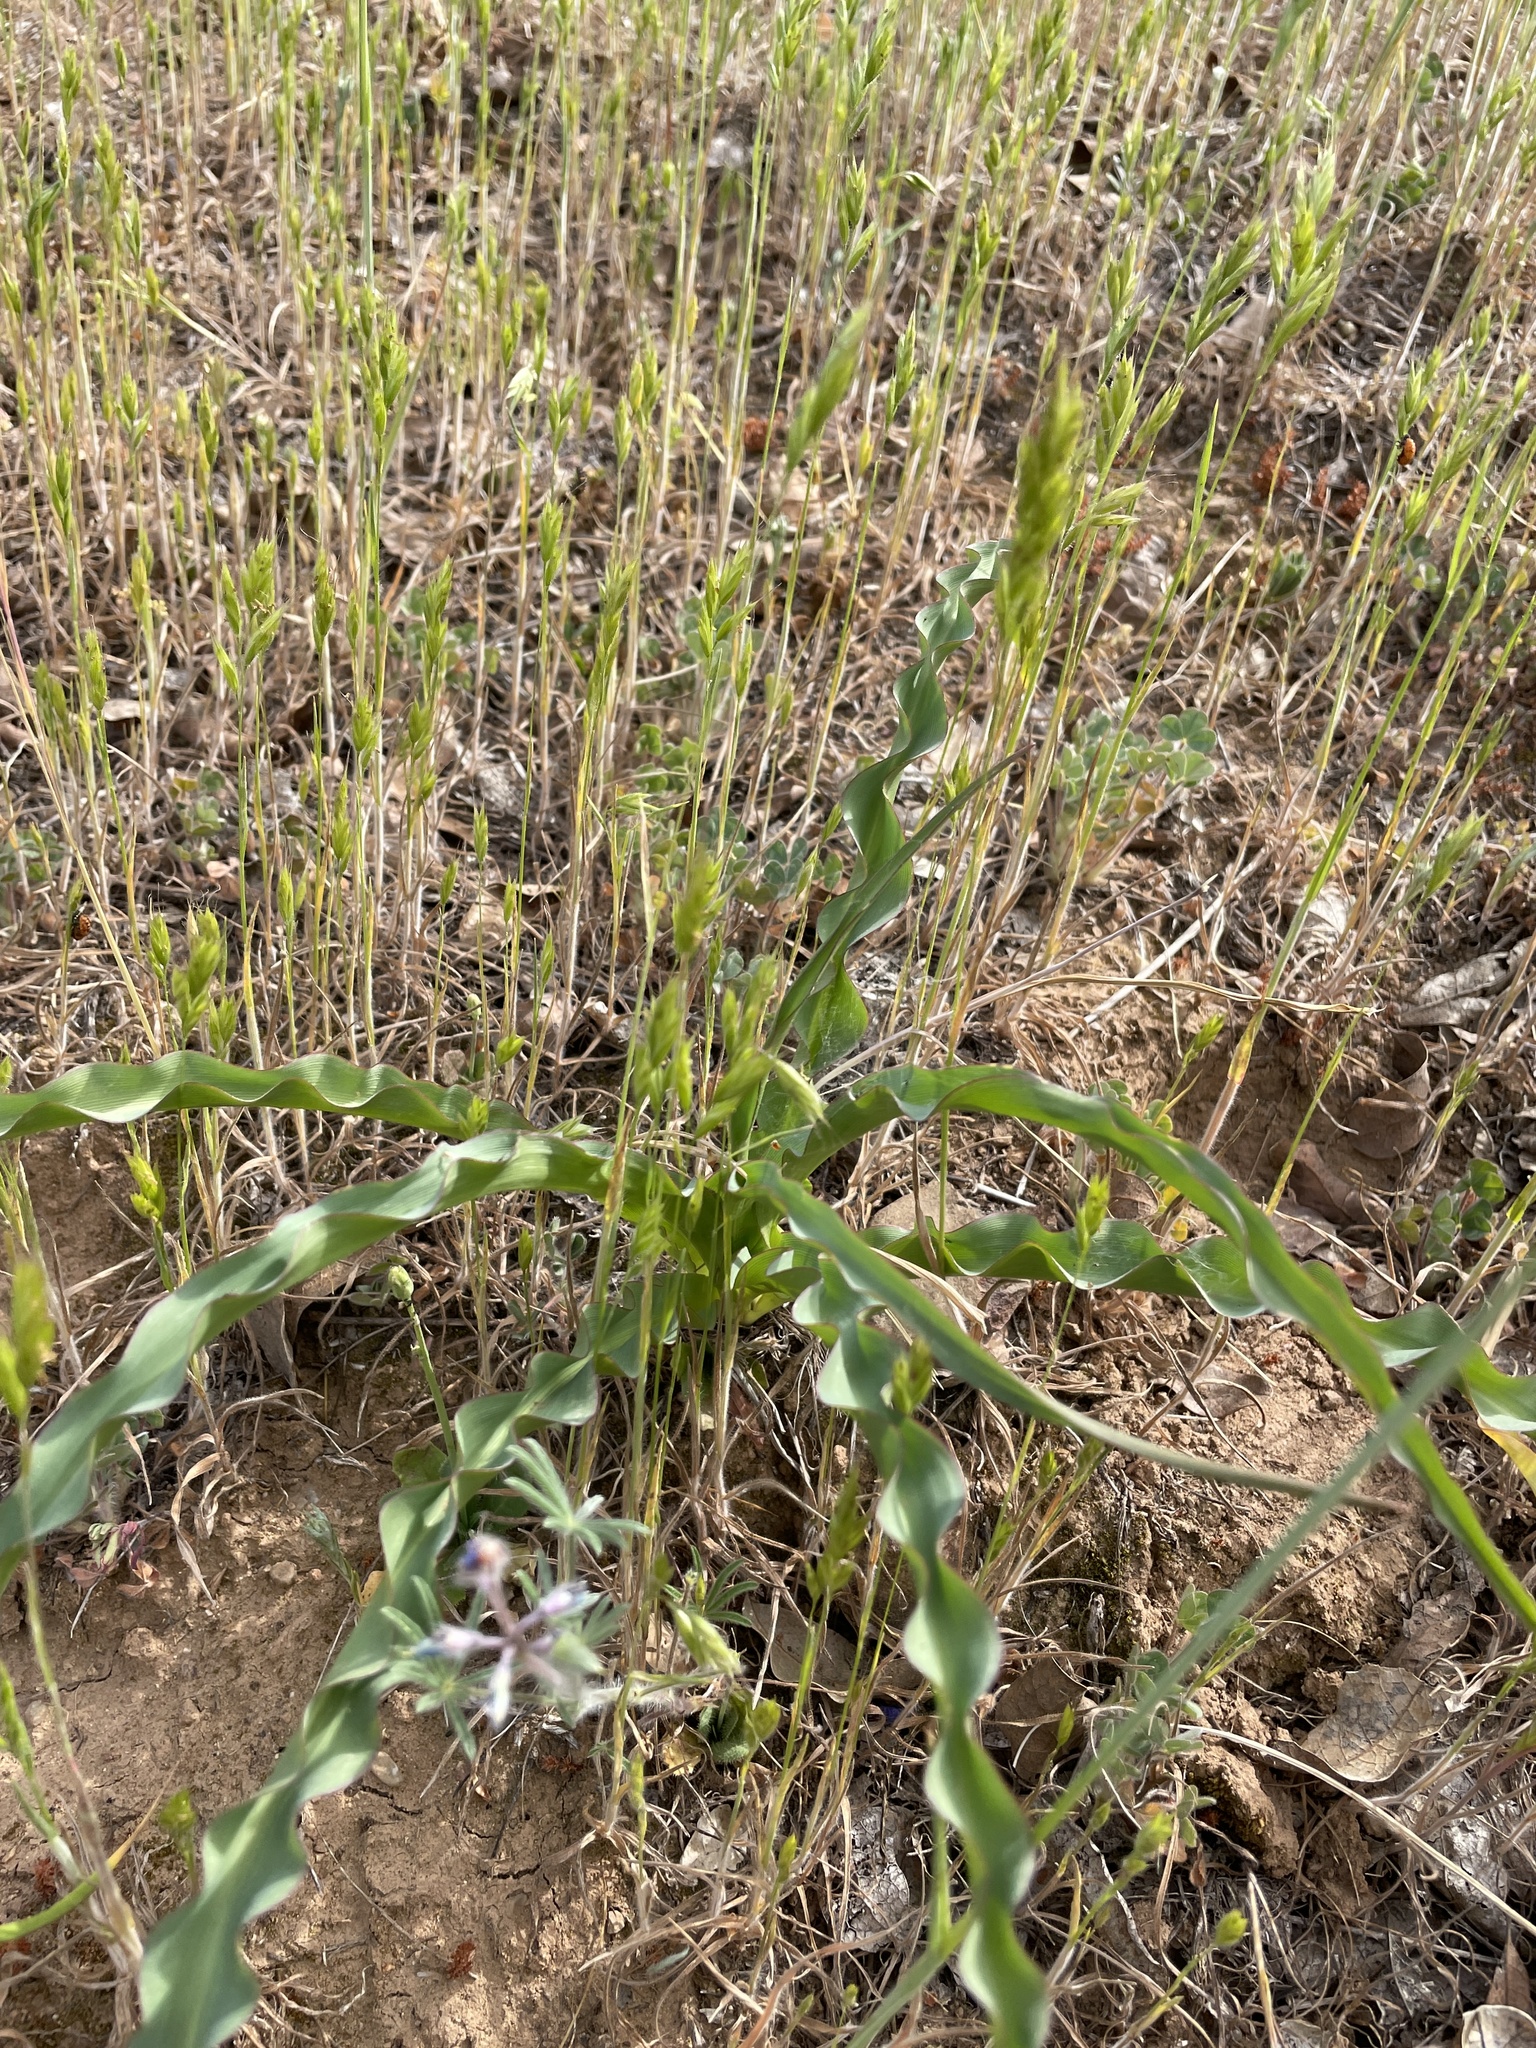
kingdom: Plantae
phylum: Tracheophyta
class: Liliopsida
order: Asparagales
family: Asparagaceae
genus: Chlorogalum
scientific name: Chlorogalum pomeridianum
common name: Amole
